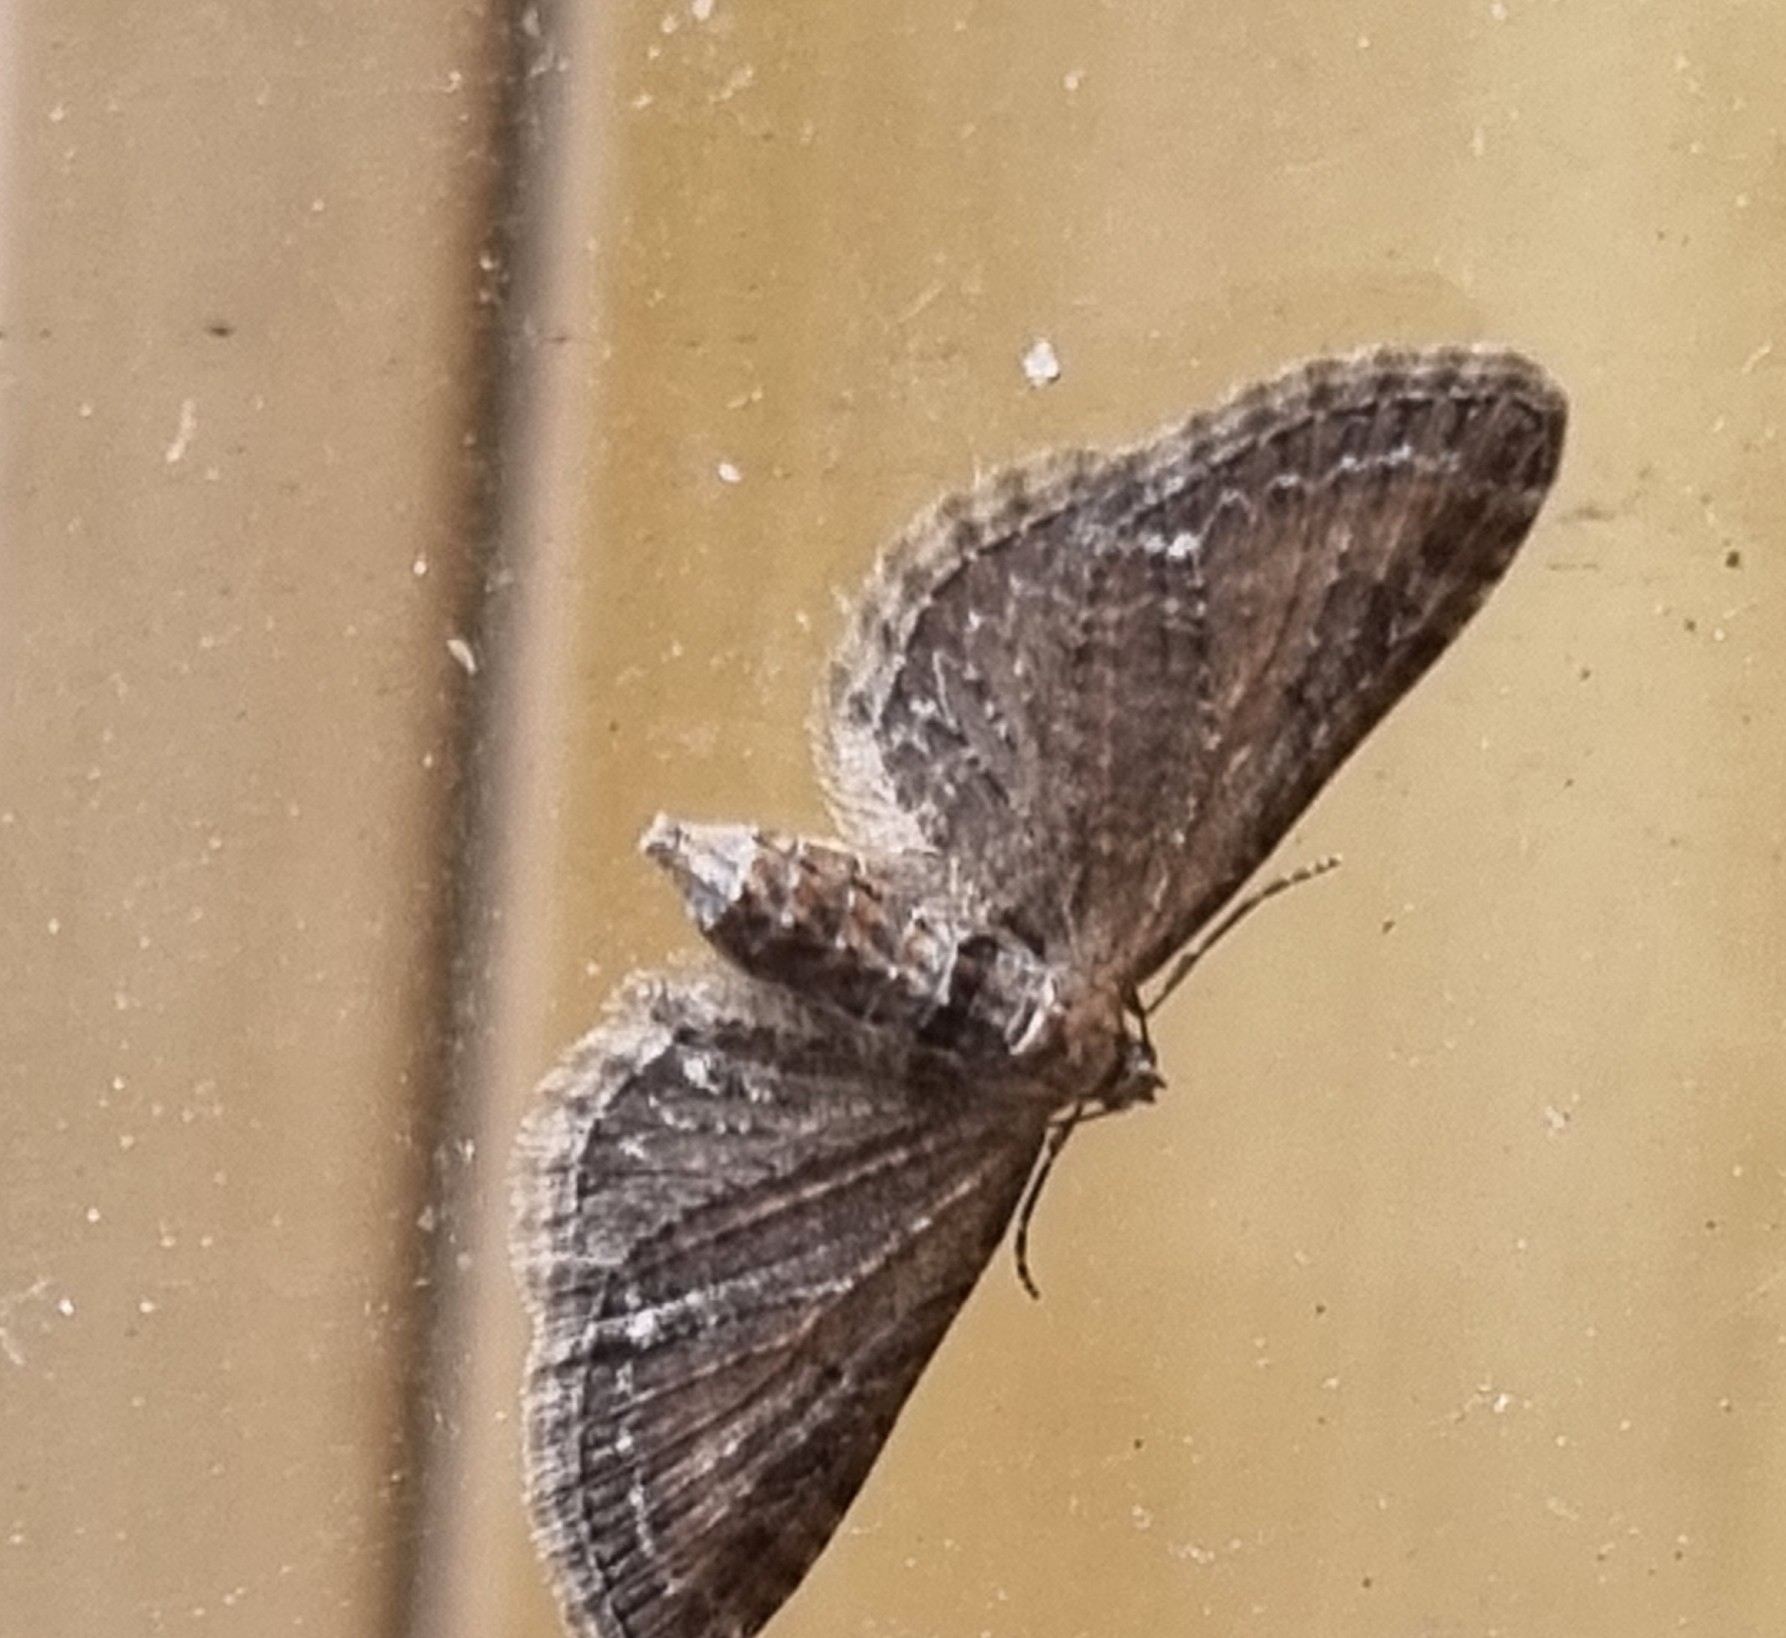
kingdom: Animalia
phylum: Arthropoda
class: Insecta
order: Lepidoptera
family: Geometridae
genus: Eupithecia
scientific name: Eupithecia vulgata
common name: Common pug
